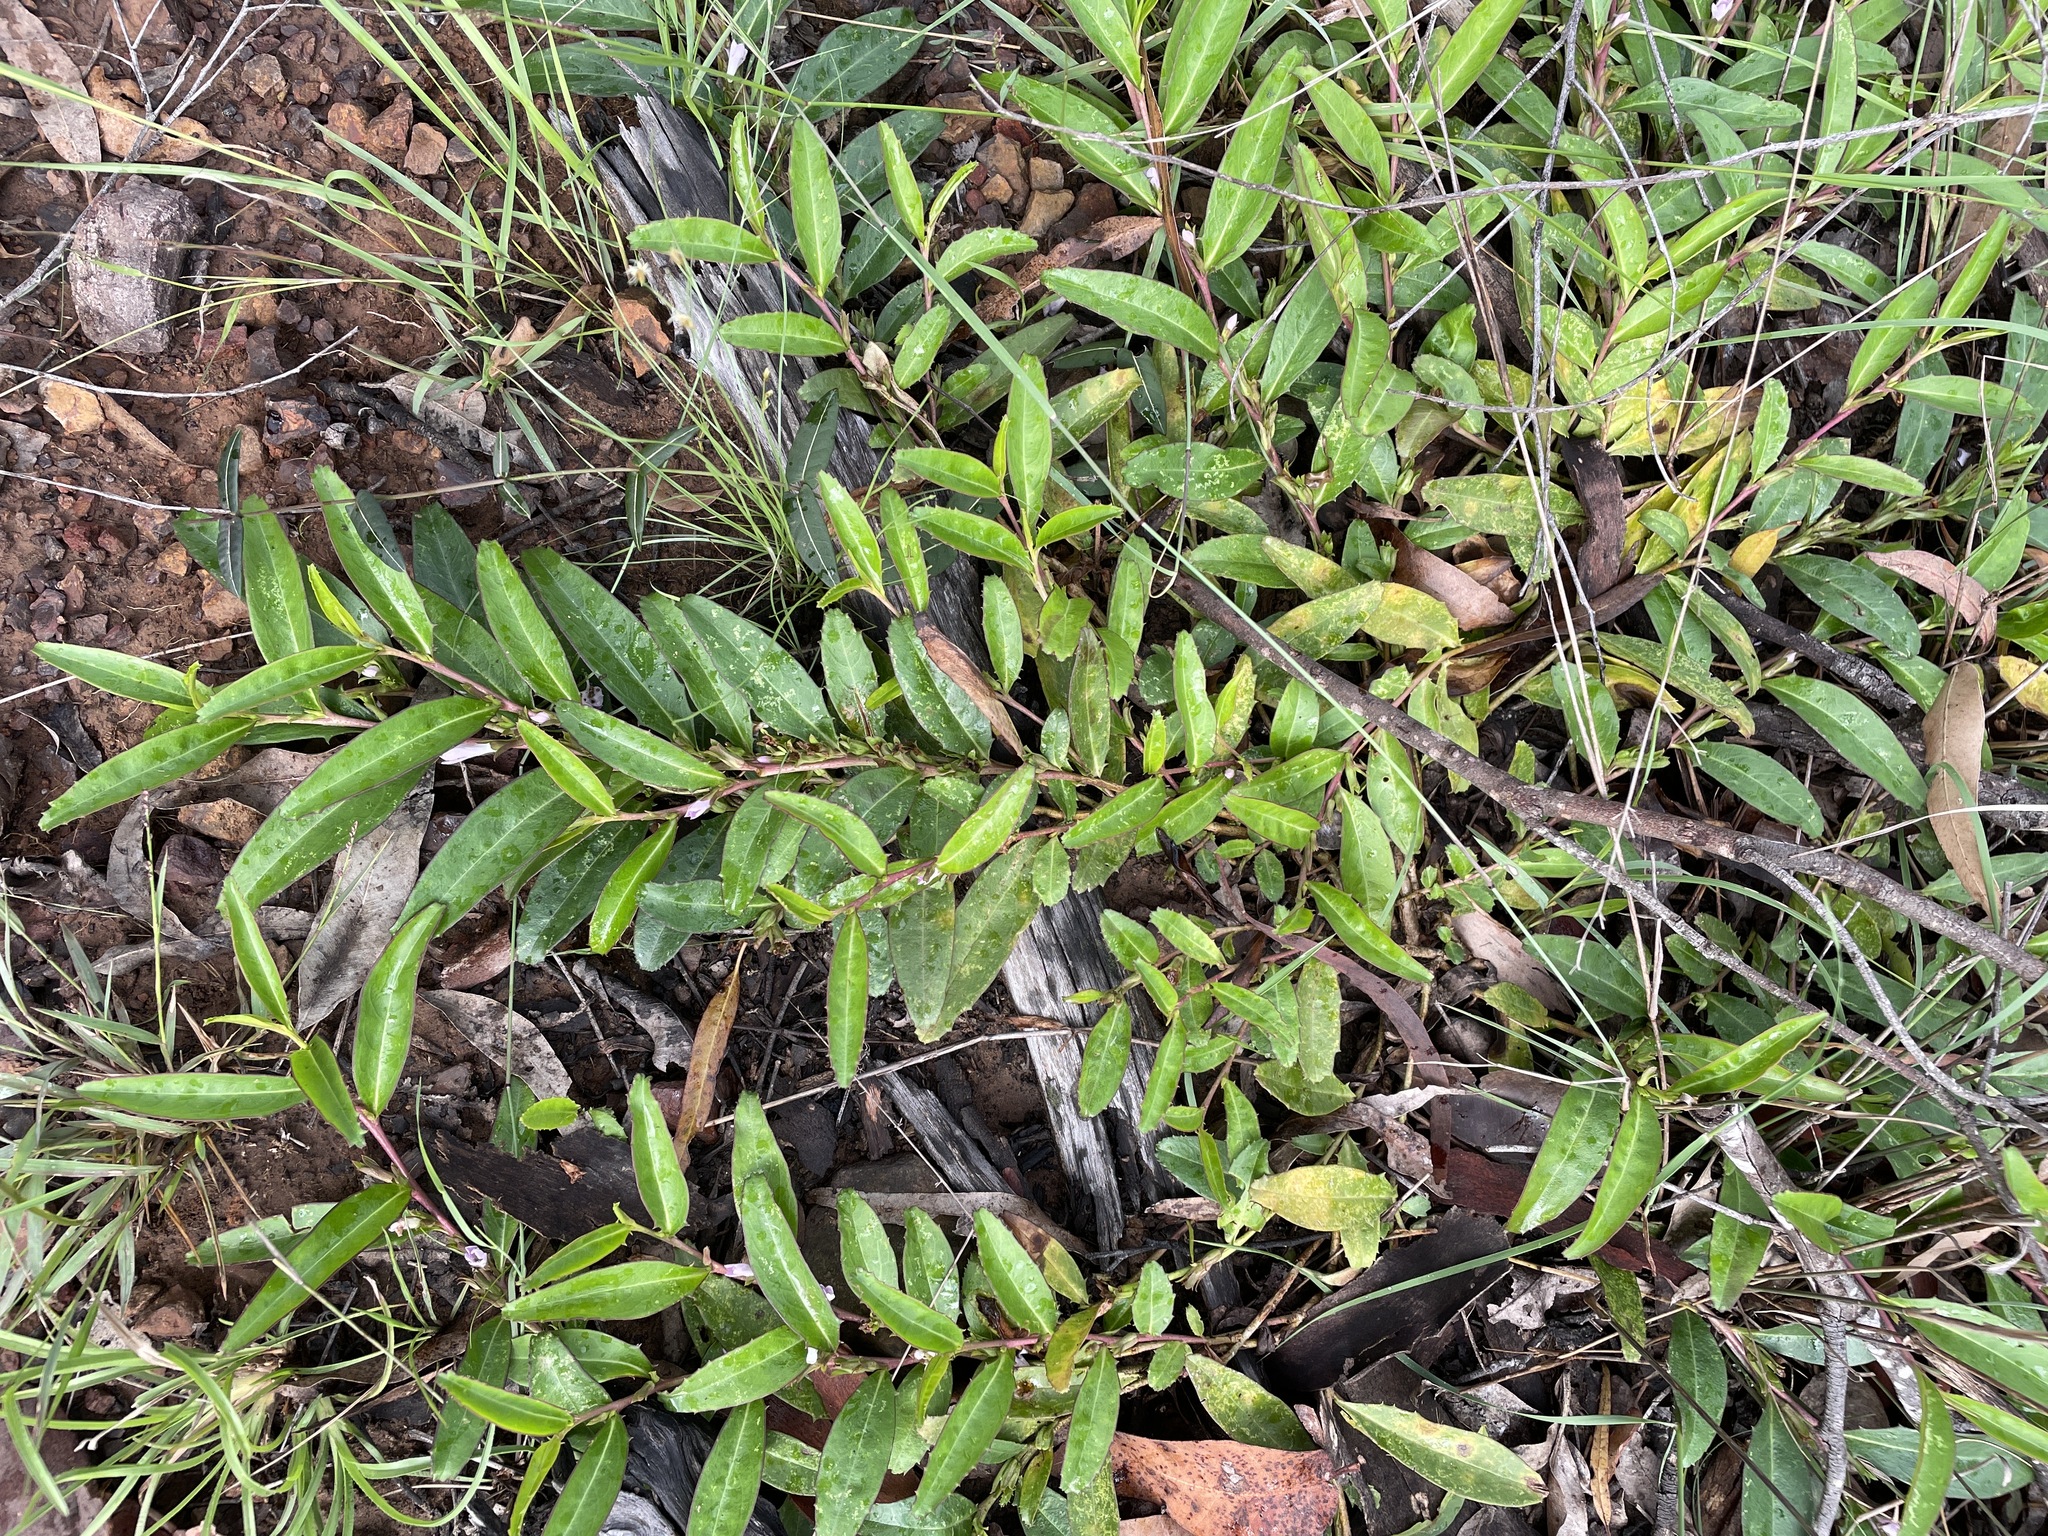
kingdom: Plantae
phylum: Tracheophyta
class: Magnoliopsida
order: Lamiales
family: Scrophulariaceae
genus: Eremophila
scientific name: Eremophila debilis
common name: Winter-apple
